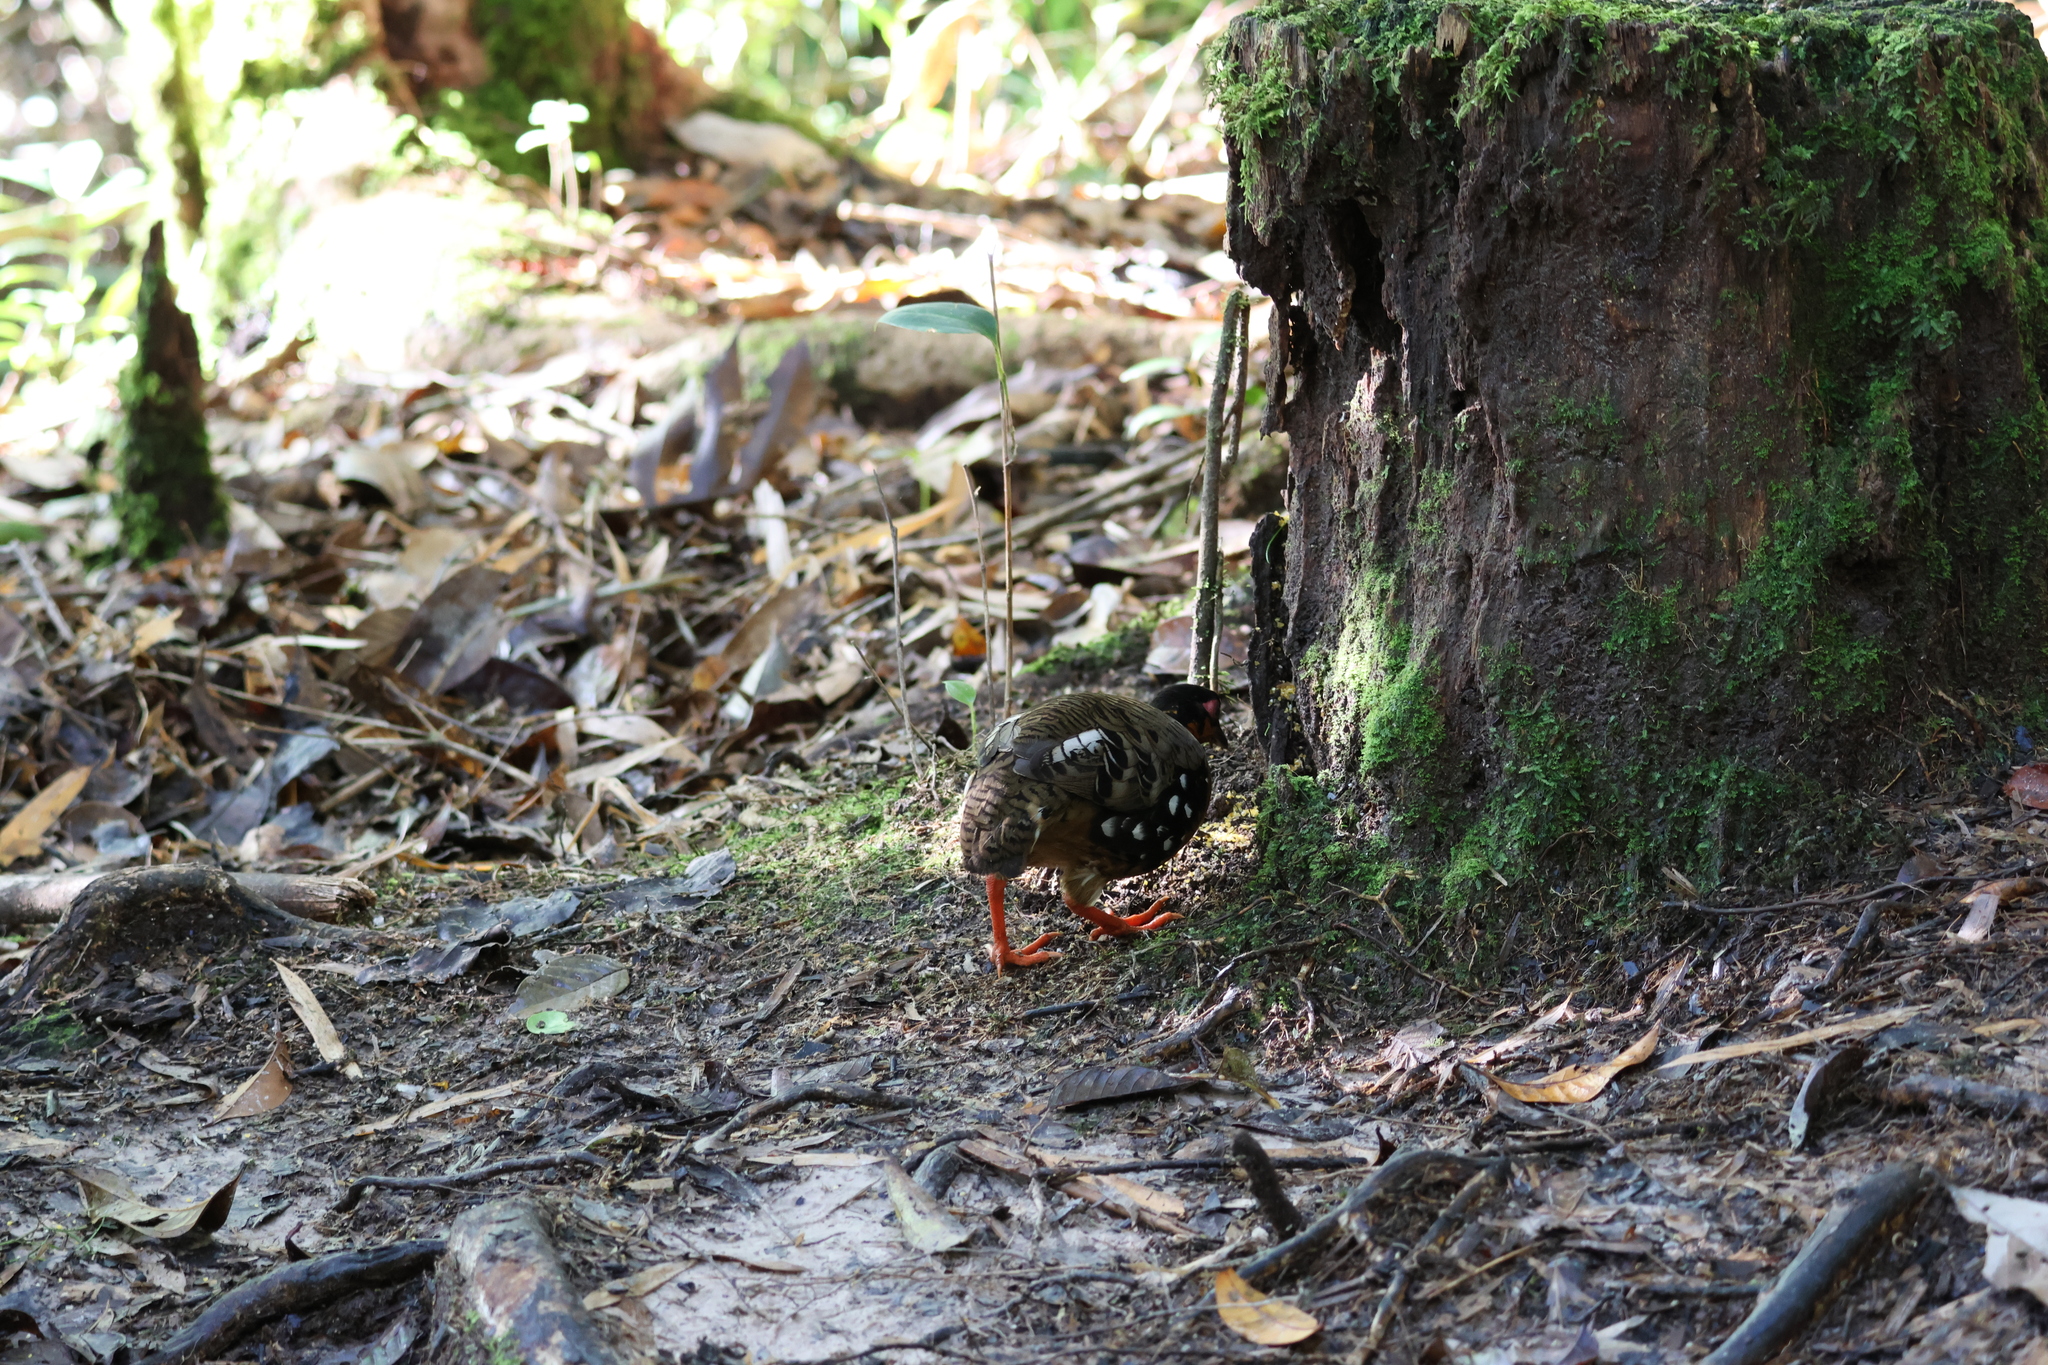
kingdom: Animalia
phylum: Chordata
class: Aves
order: Galliformes
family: Phasianidae
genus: Arborophila
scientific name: Arborophila hyperythra
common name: Red-breasted partridge
